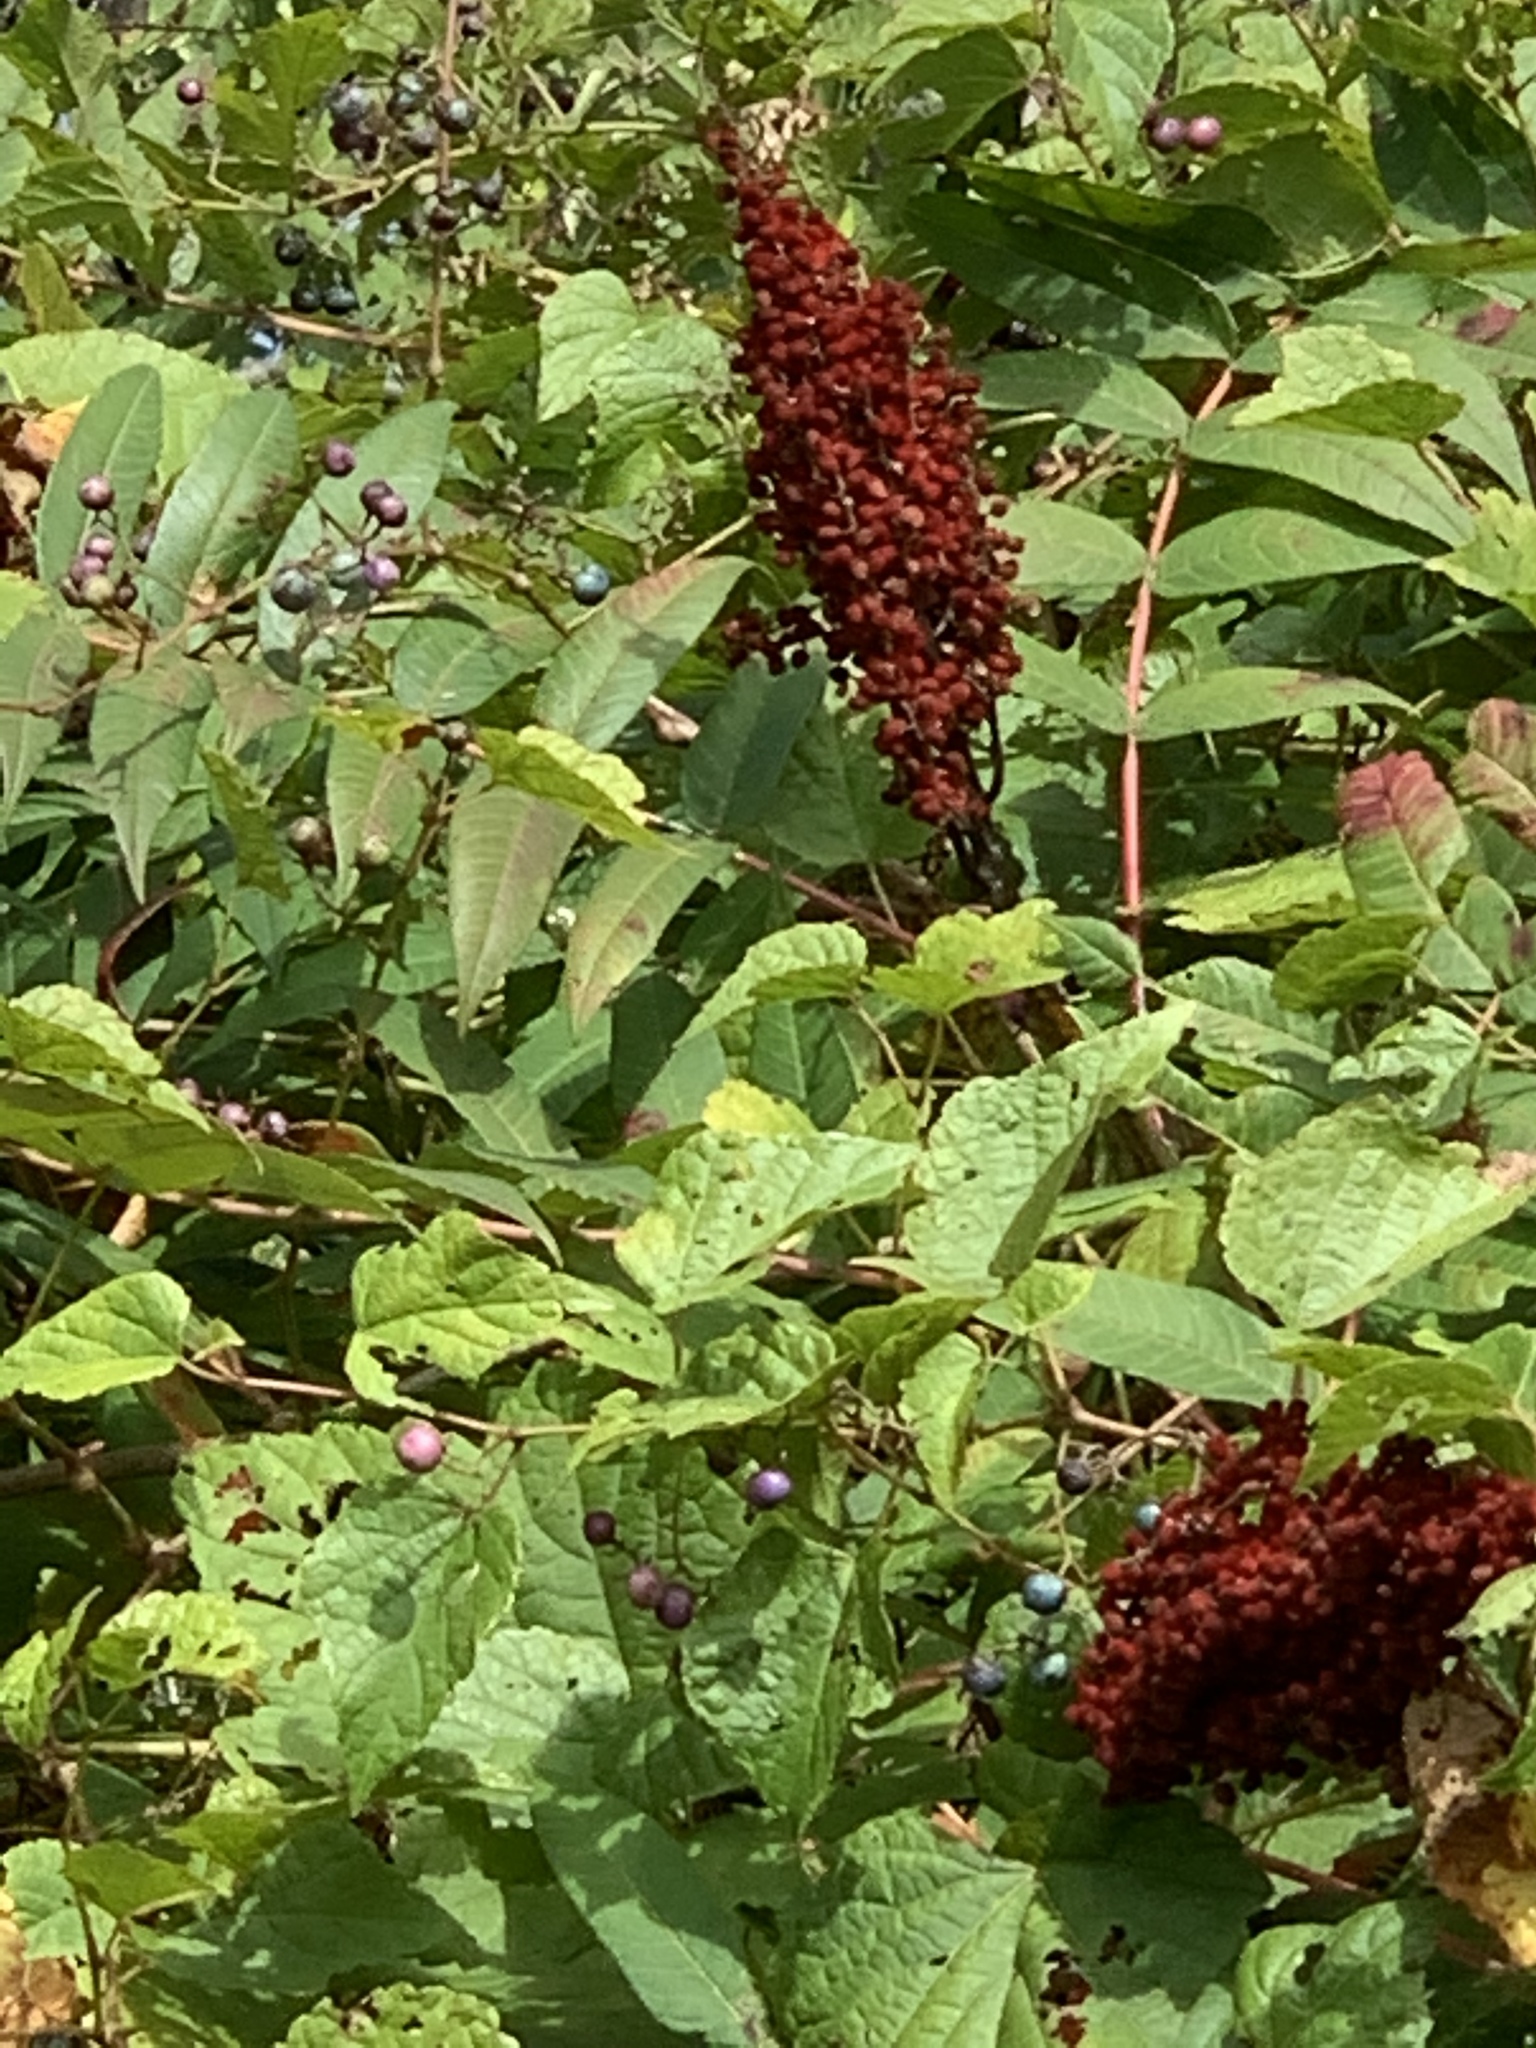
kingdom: Plantae
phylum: Tracheophyta
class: Magnoliopsida
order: Sapindales
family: Anacardiaceae
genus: Rhus
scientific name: Rhus glabra
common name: Scarlet sumac
